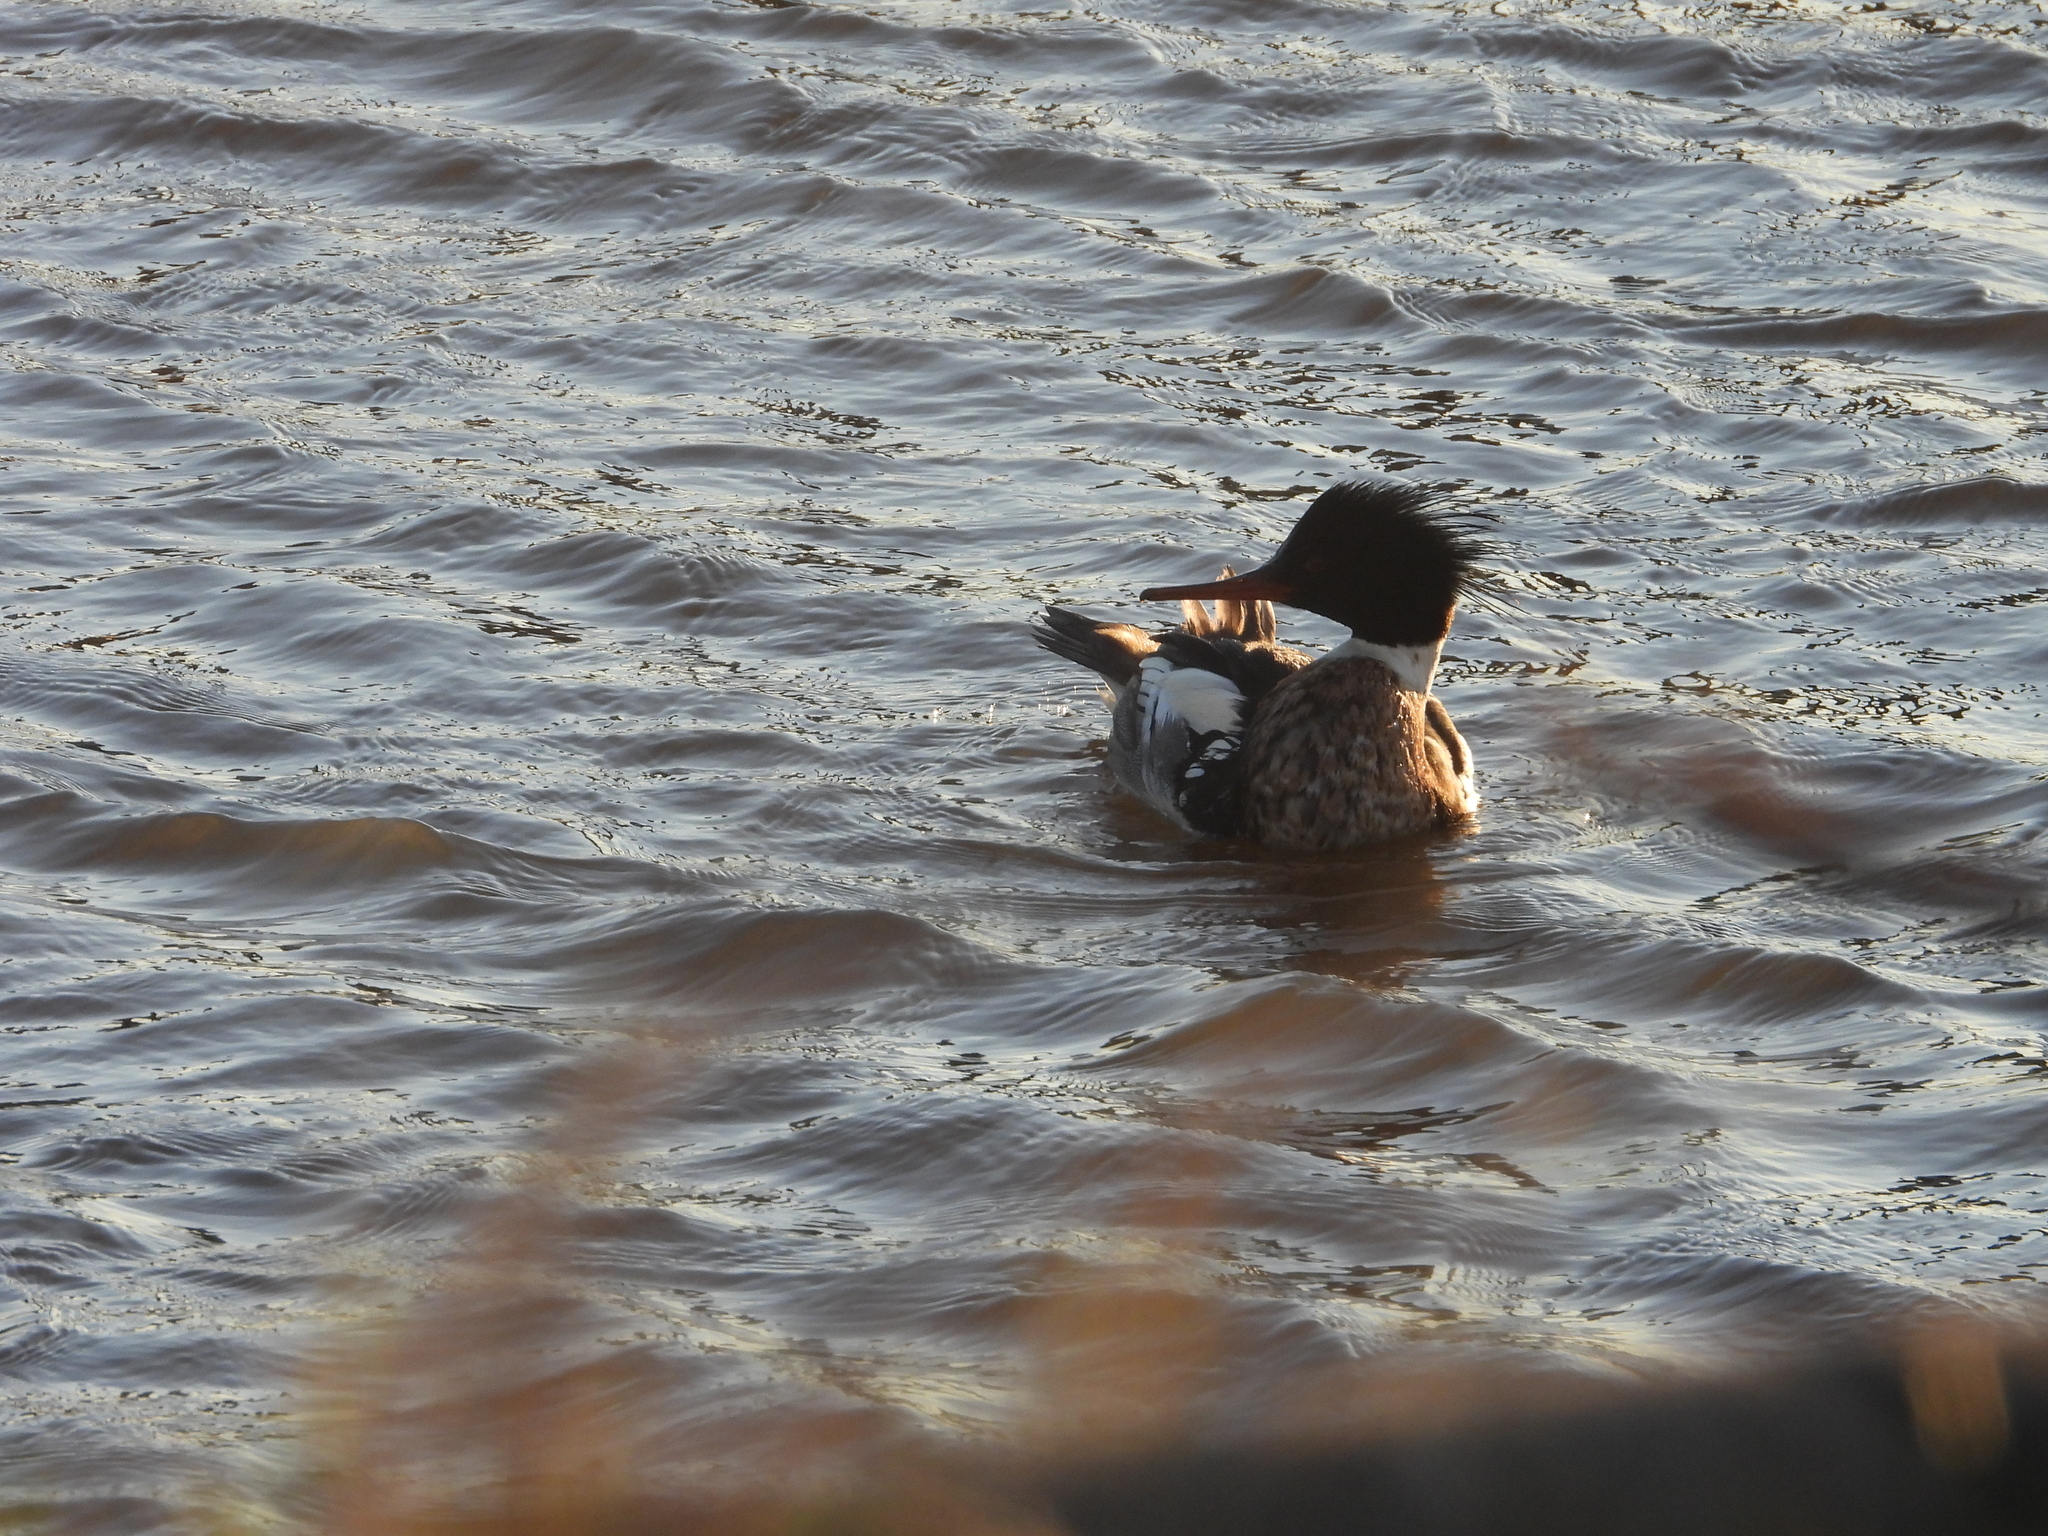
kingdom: Animalia
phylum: Chordata
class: Aves
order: Anseriformes
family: Anatidae
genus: Mergus
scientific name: Mergus serrator
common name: Red-breasted merganser
